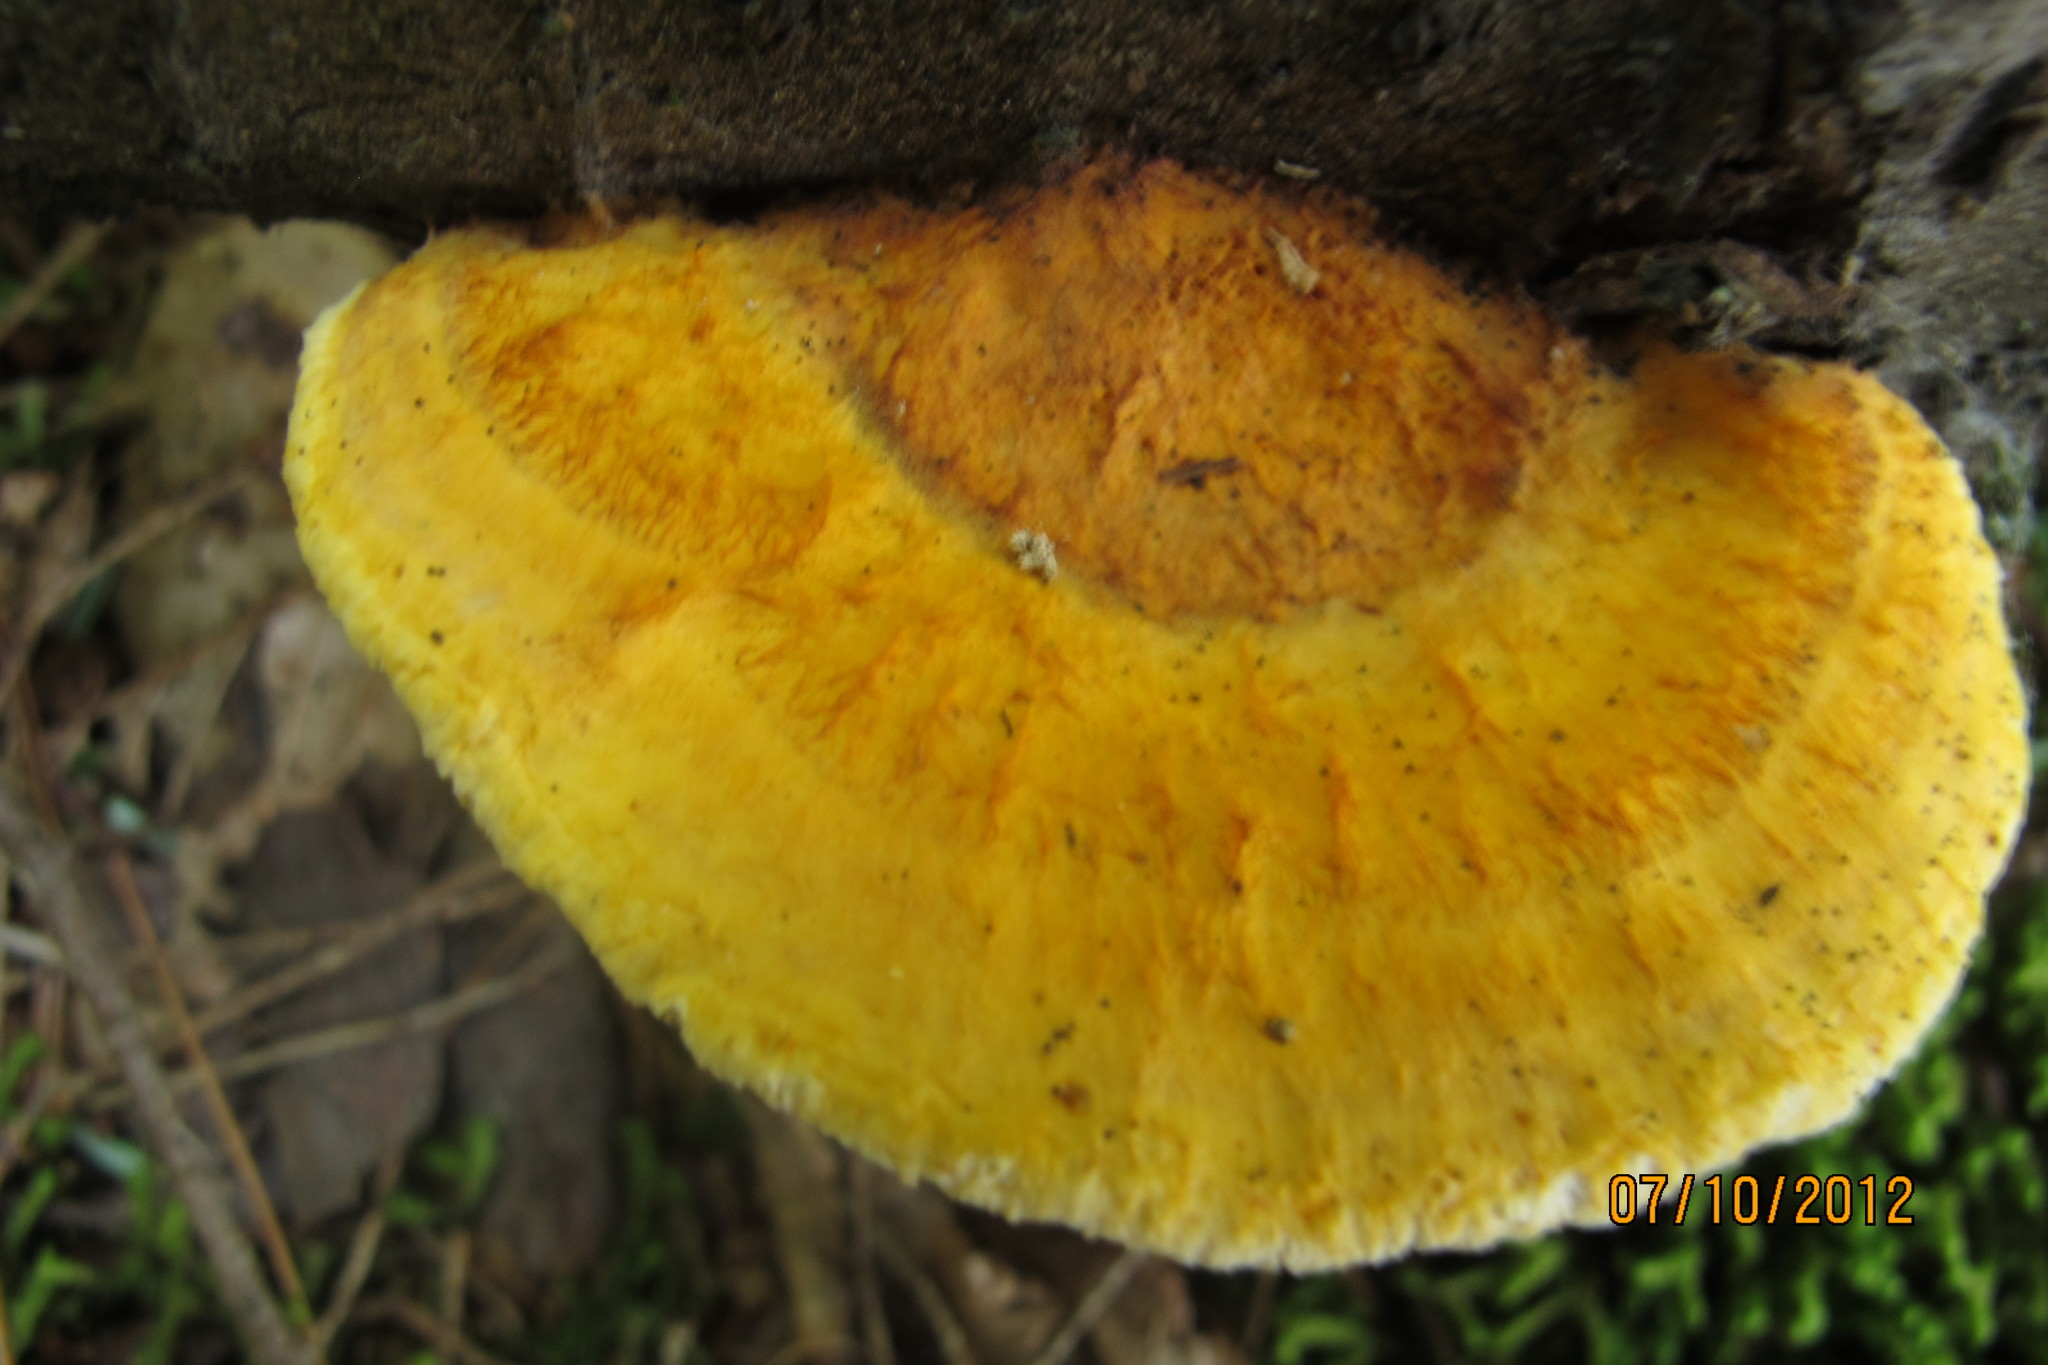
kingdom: Fungi
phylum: Basidiomycota
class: Agaricomycetes
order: Polyporales
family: Pycnoporellaceae
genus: Pycnoporellus
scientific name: Pycnoporellus fulgens
